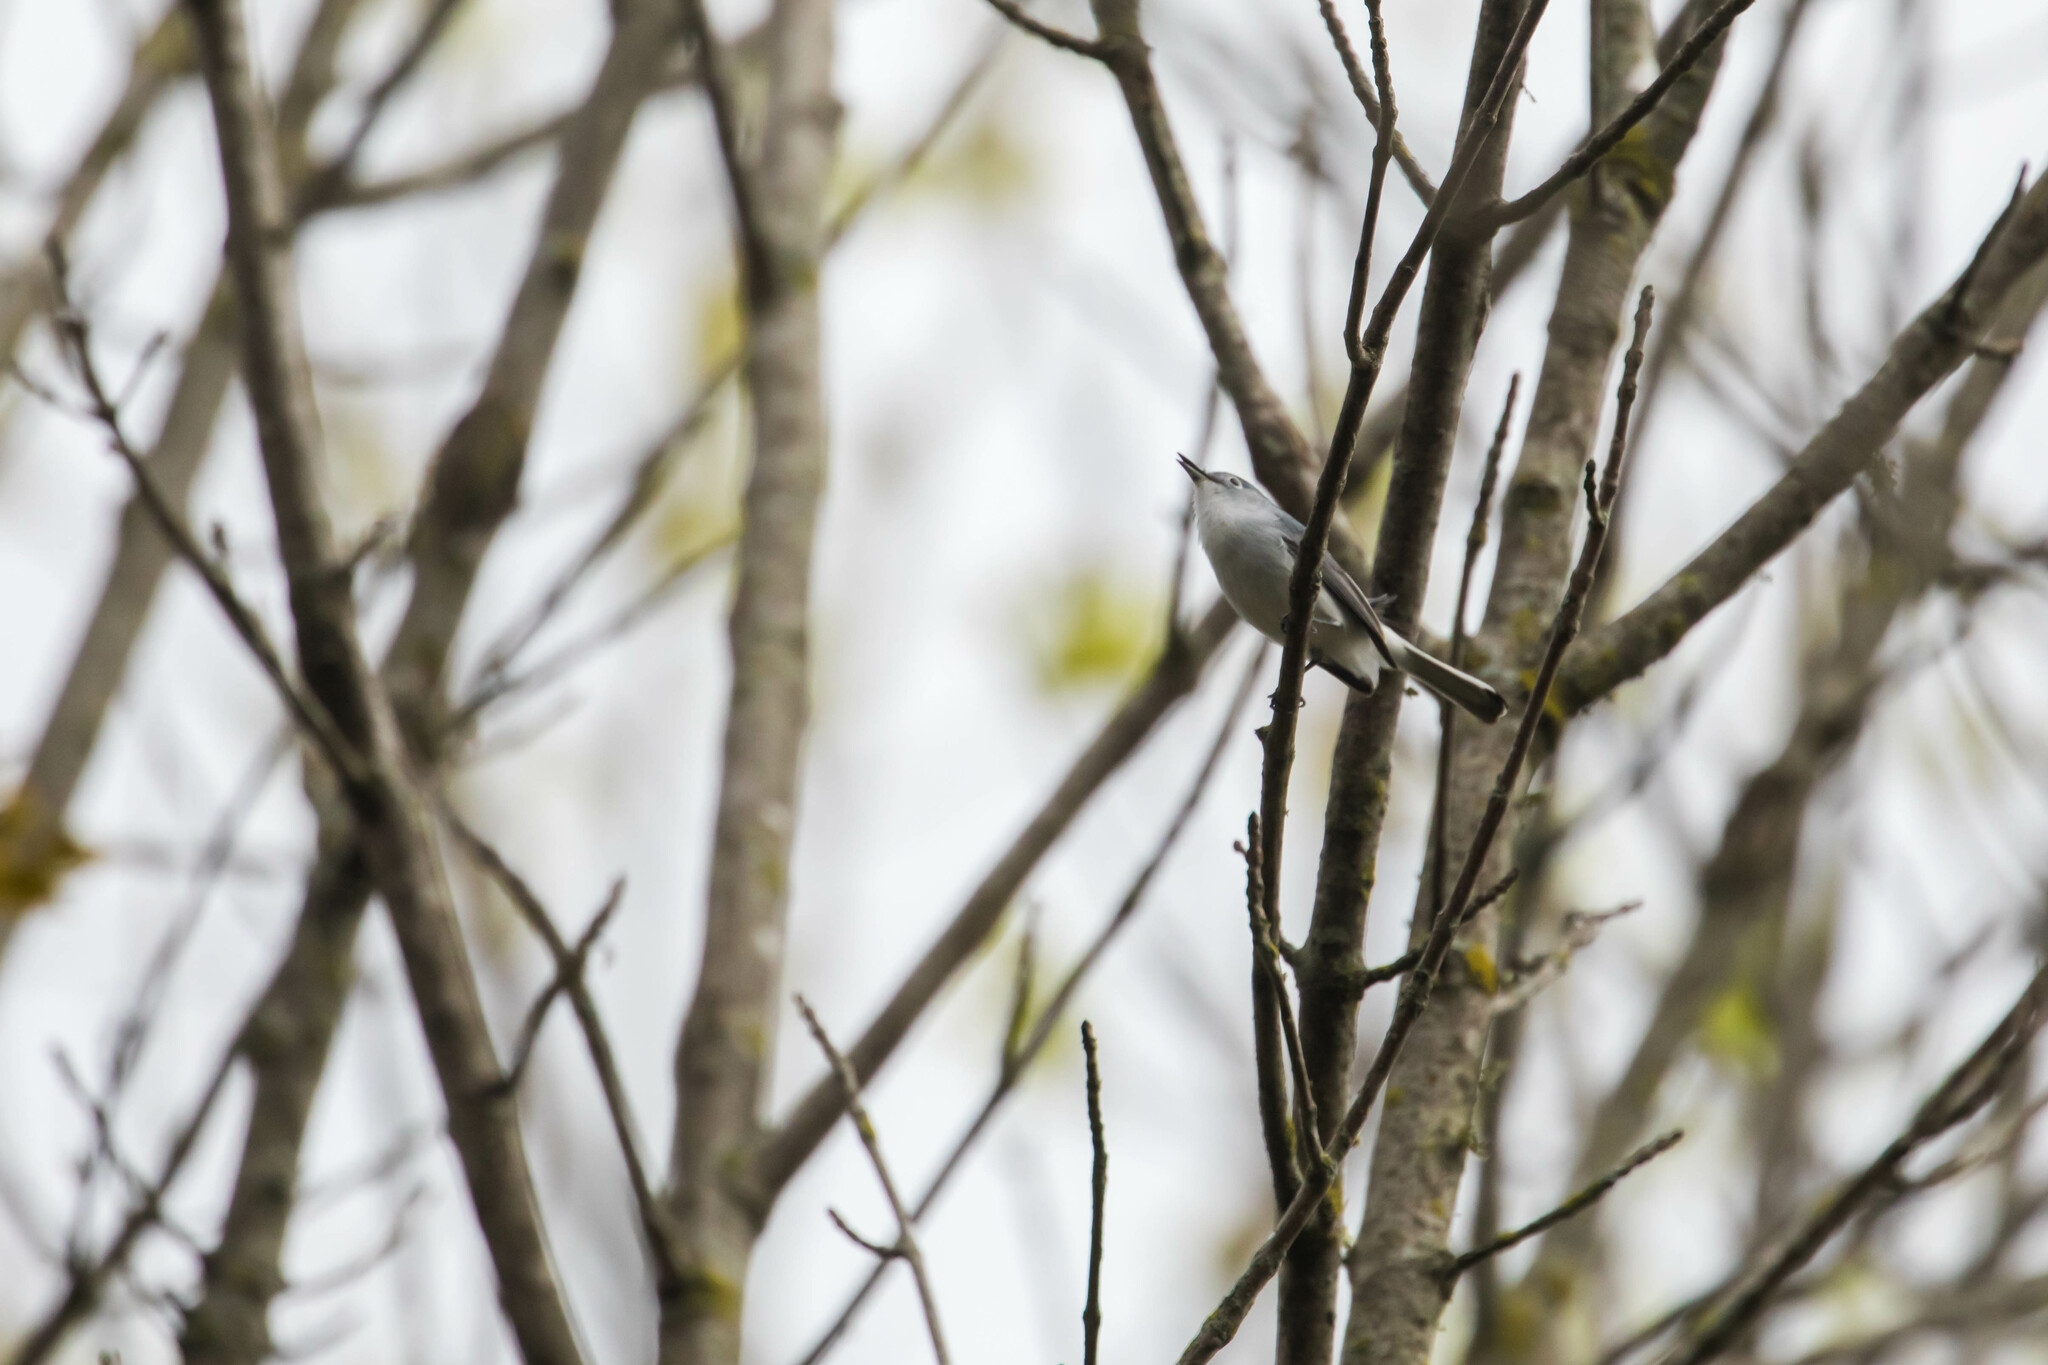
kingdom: Animalia
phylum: Chordata
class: Aves
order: Passeriformes
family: Polioptilidae
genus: Polioptila
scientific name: Polioptila caerulea
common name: Blue-gray gnatcatcher
